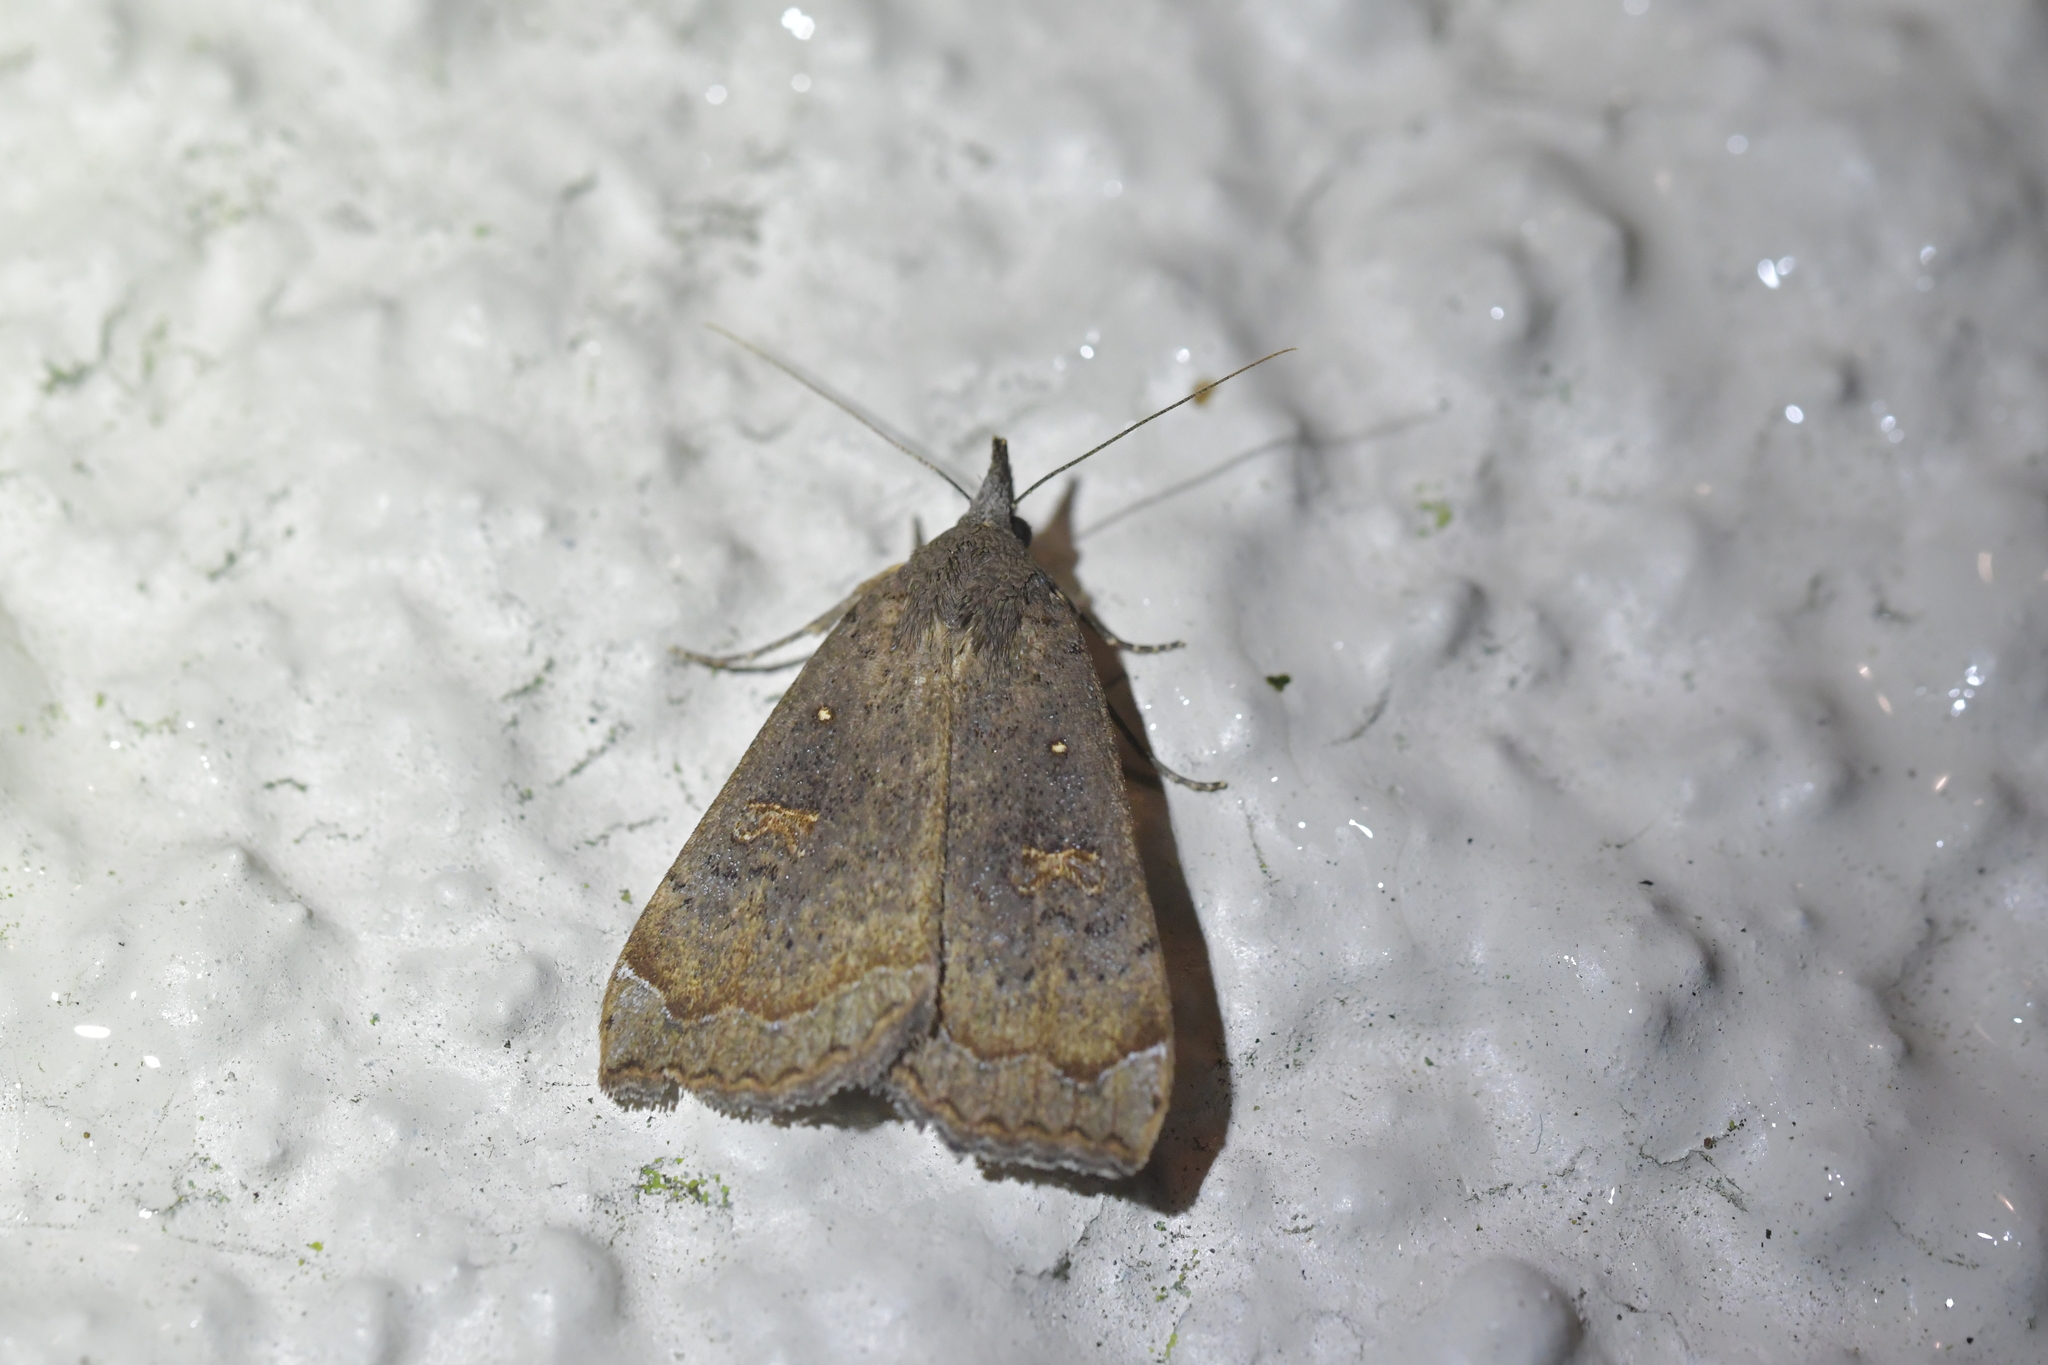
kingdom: Animalia
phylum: Arthropoda
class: Insecta
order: Lepidoptera
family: Erebidae
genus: Rhapsa
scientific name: Rhapsa scotosialis
